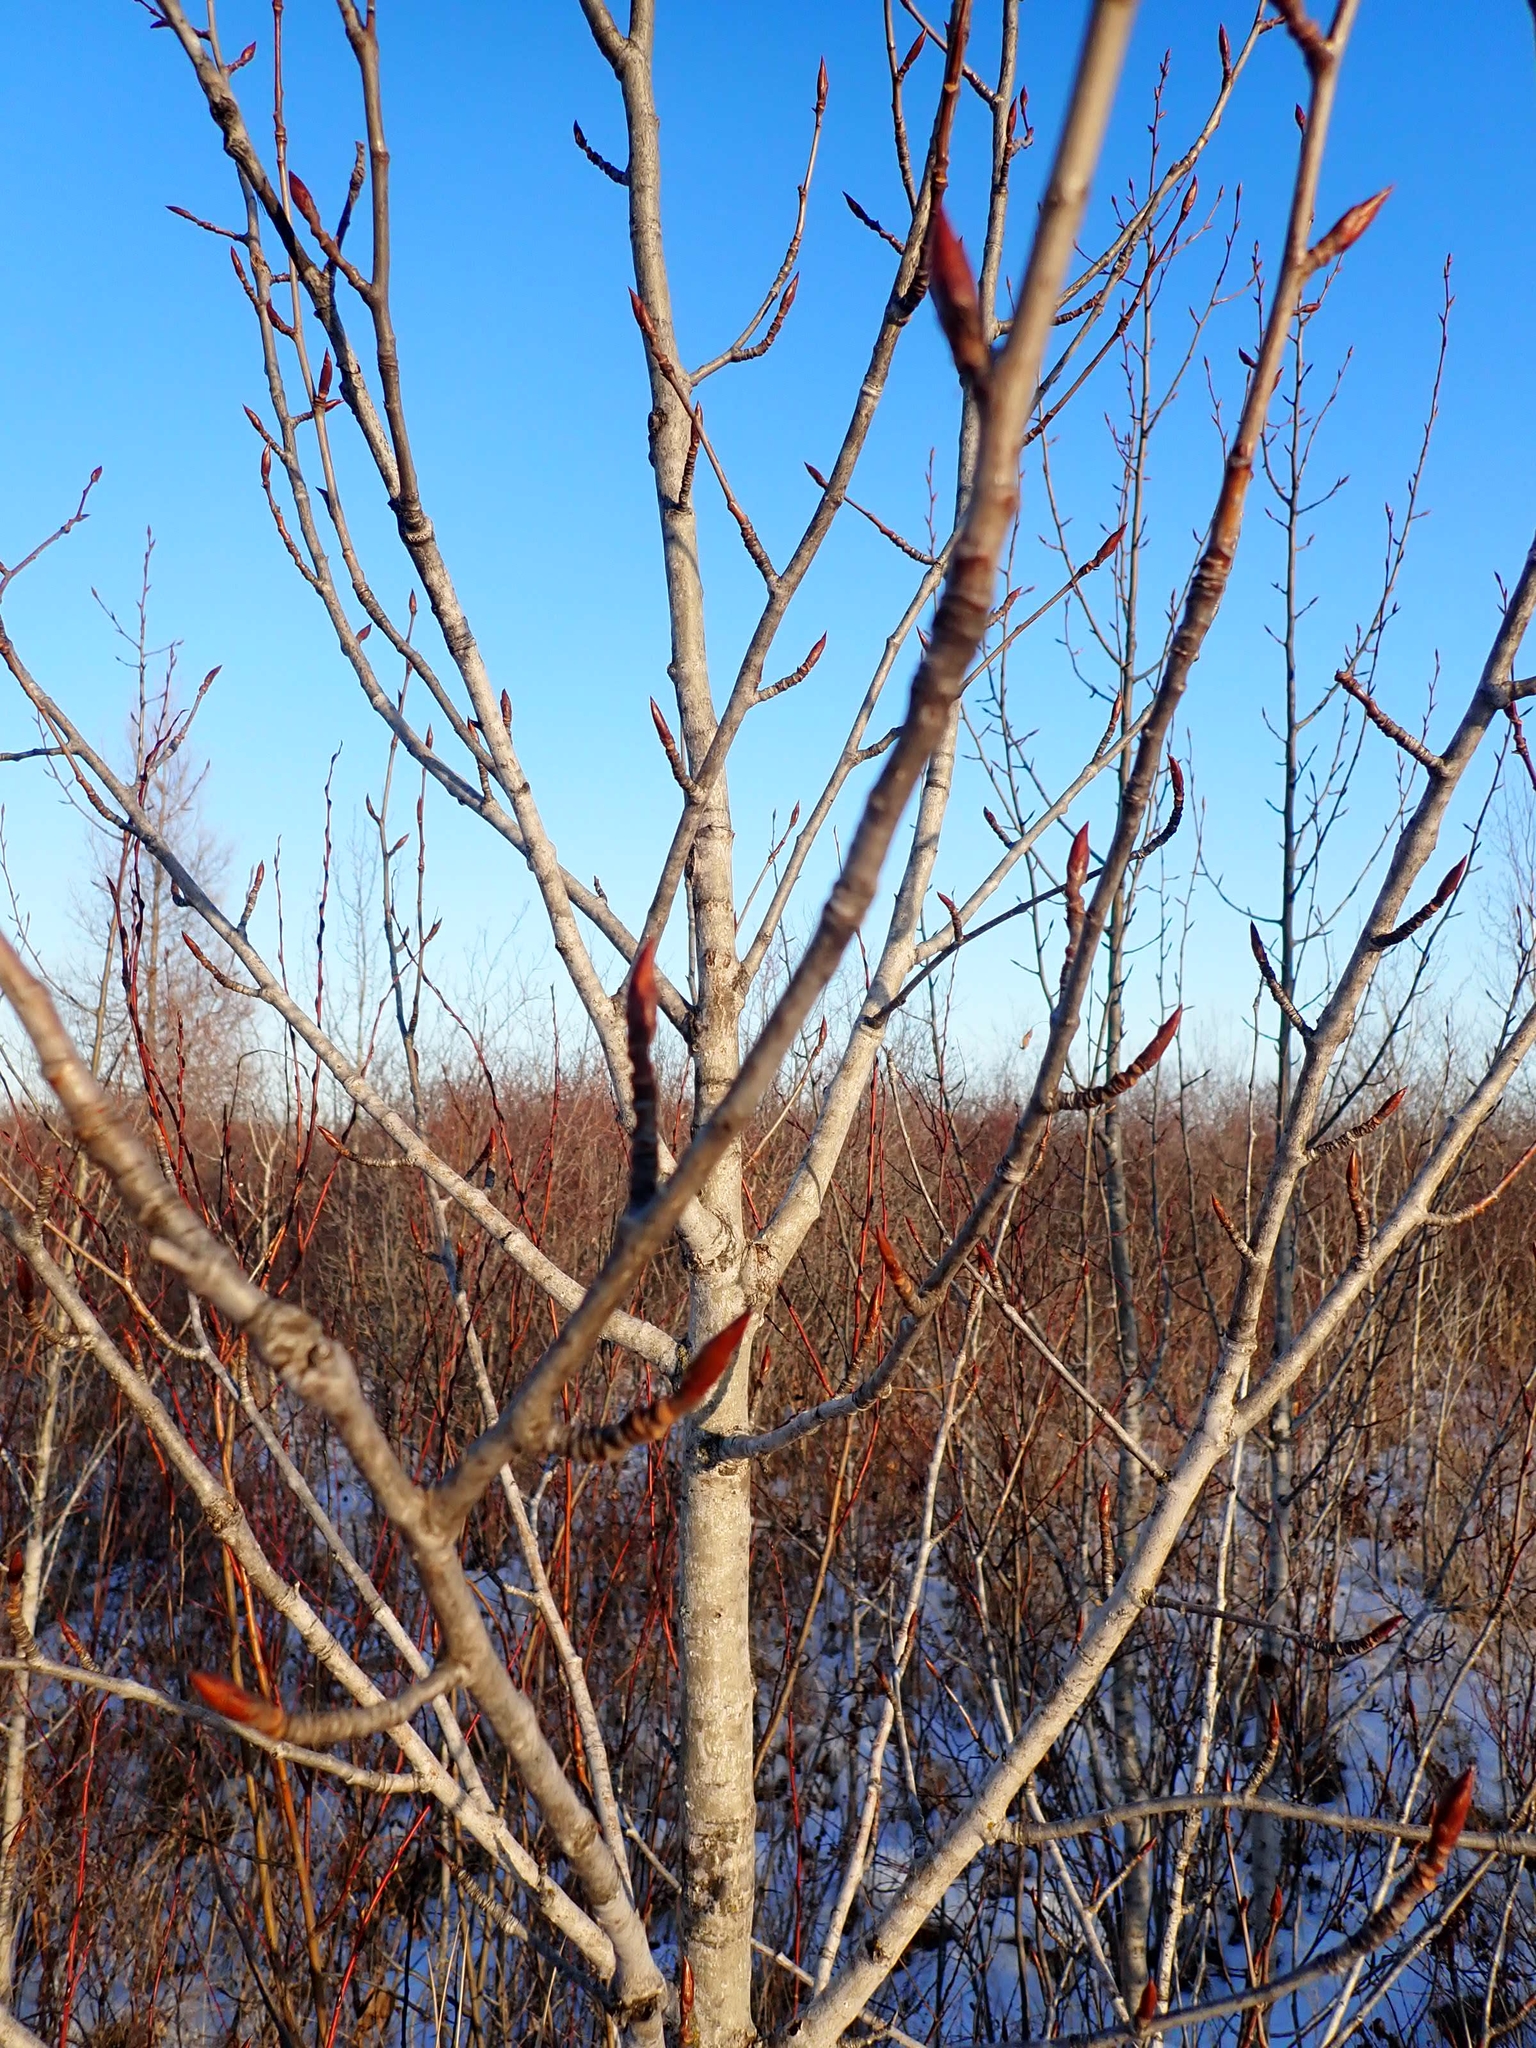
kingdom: Plantae
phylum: Tracheophyta
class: Magnoliopsida
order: Malpighiales
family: Salicaceae
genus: Populus
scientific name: Populus balsamifera
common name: Balsam poplar
